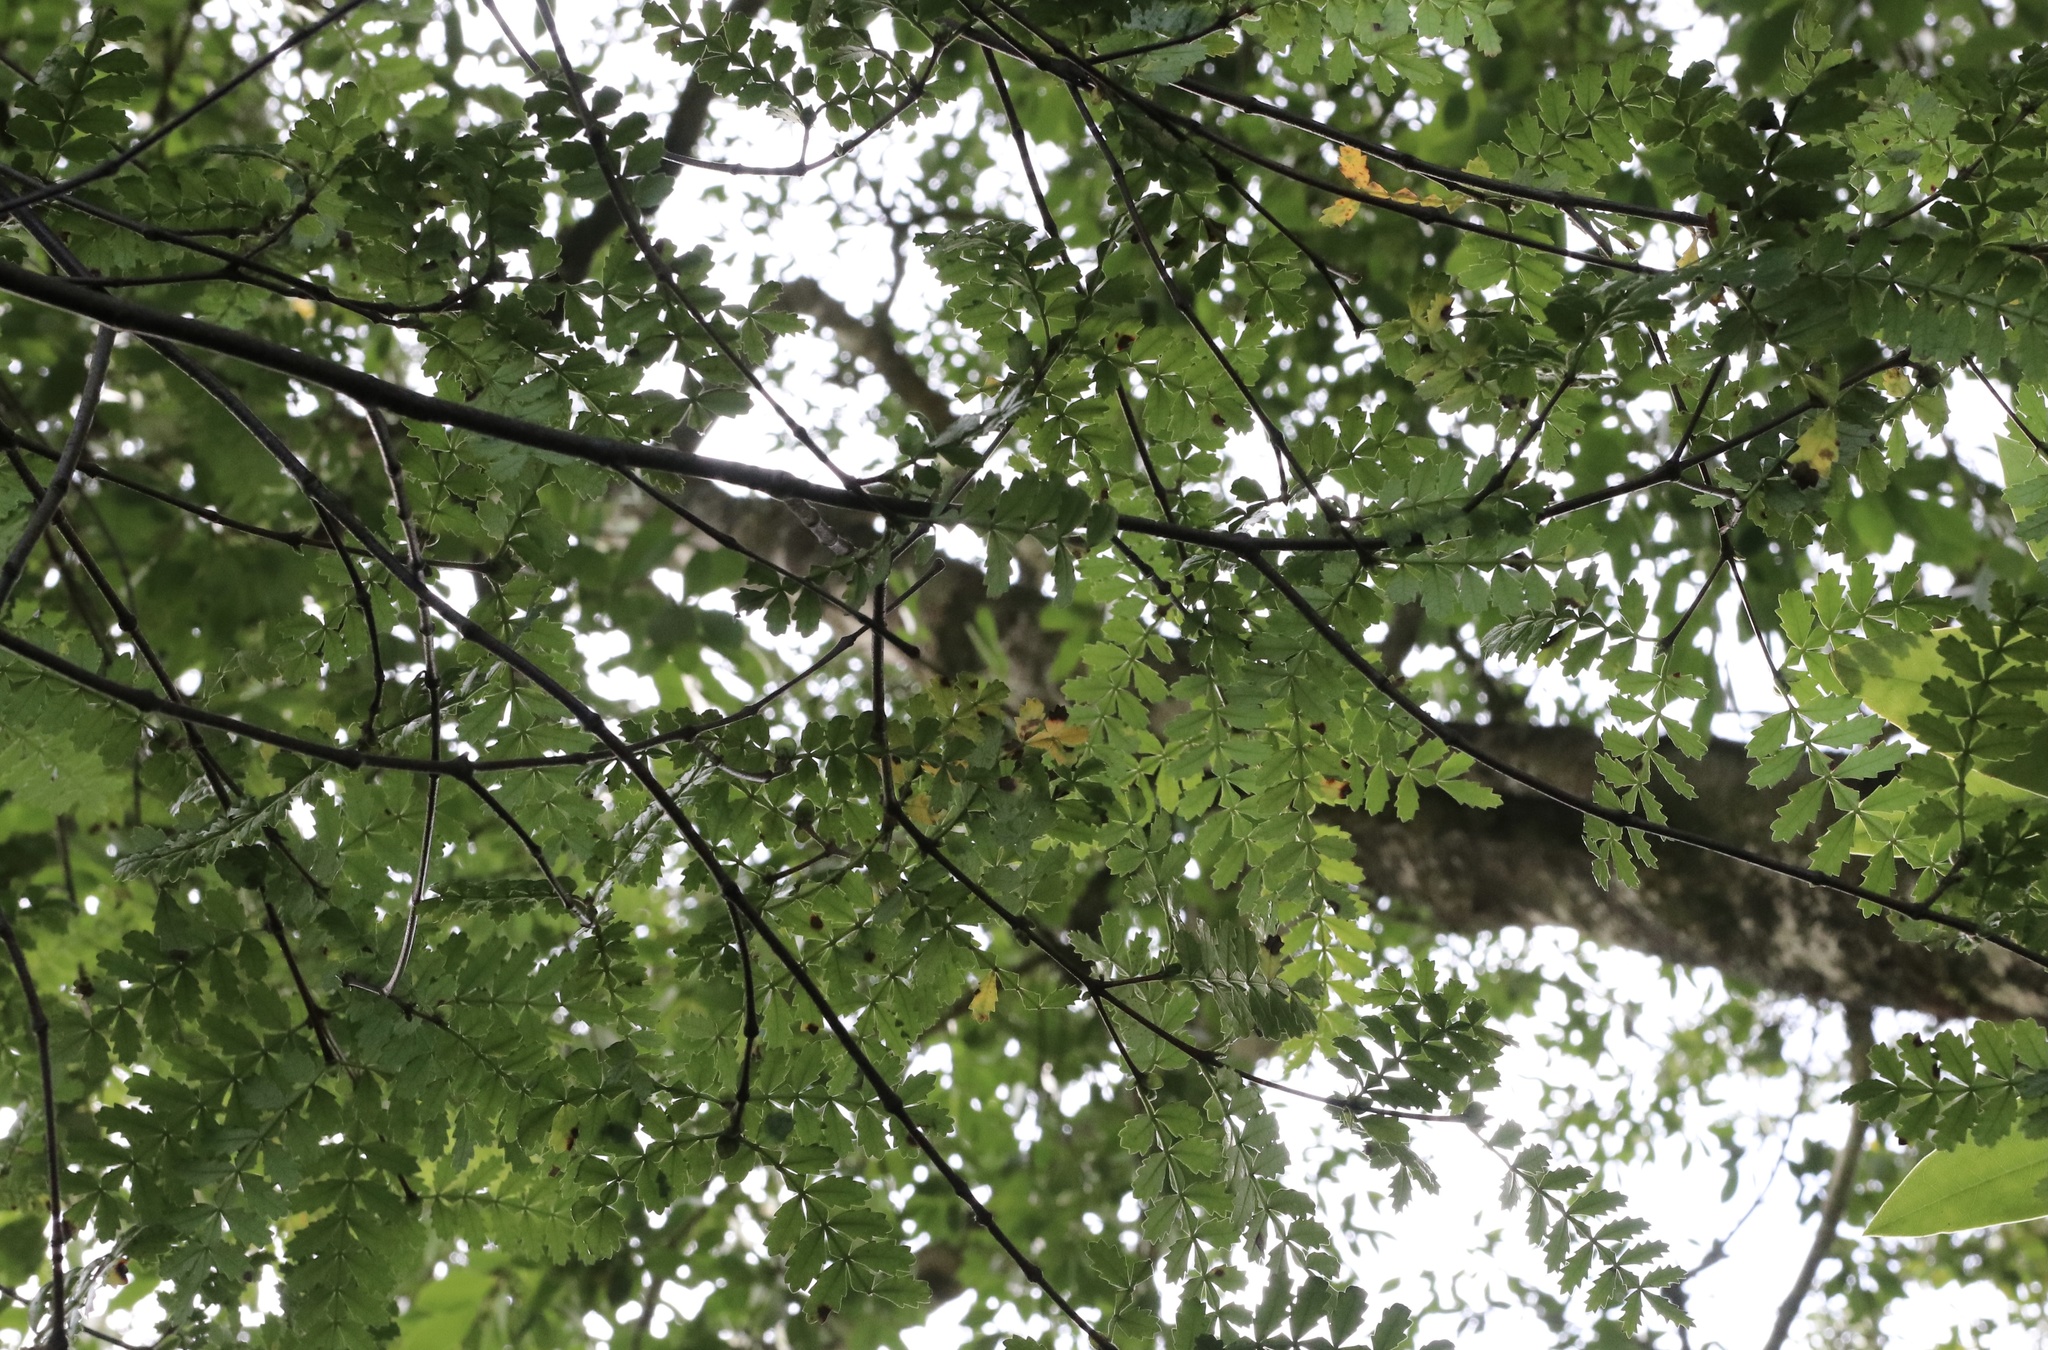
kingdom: Plantae
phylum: Tracheophyta
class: Magnoliopsida
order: Oxalidales
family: Cunoniaceae
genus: Weinmannia
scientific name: Weinmannia trichosperma
